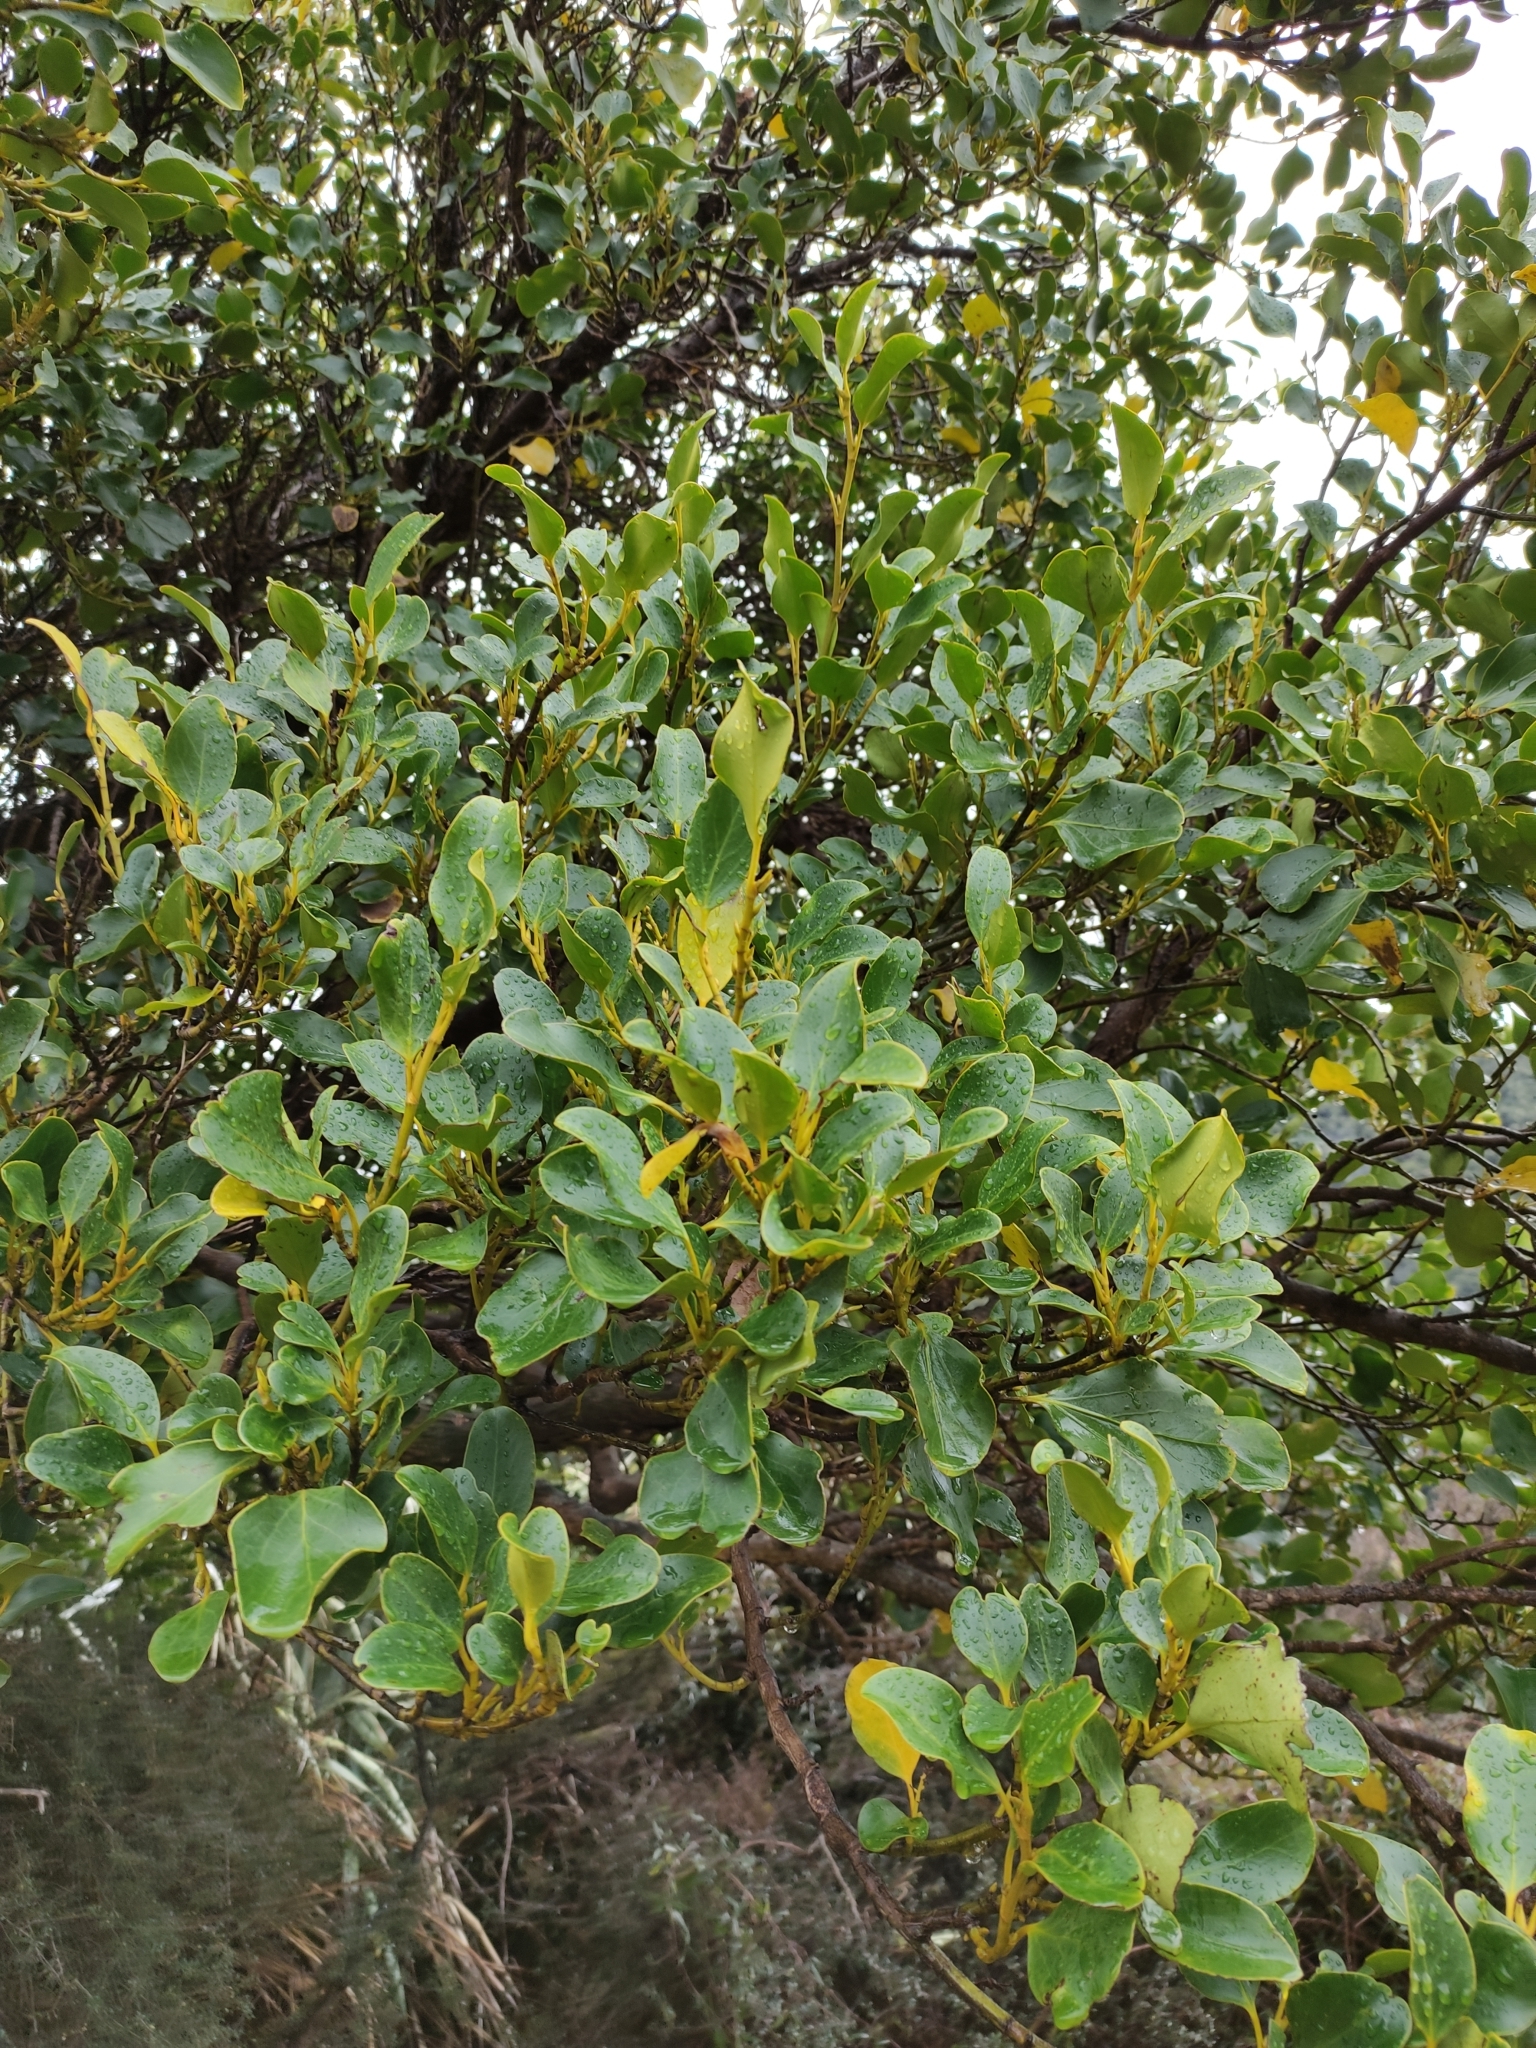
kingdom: Plantae
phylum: Tracheophyta
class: Magnoliopsida
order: Apiales
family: Griseliniaceae
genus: Griselinia
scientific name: Griselinia littoralis
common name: New zealand broadleaf
